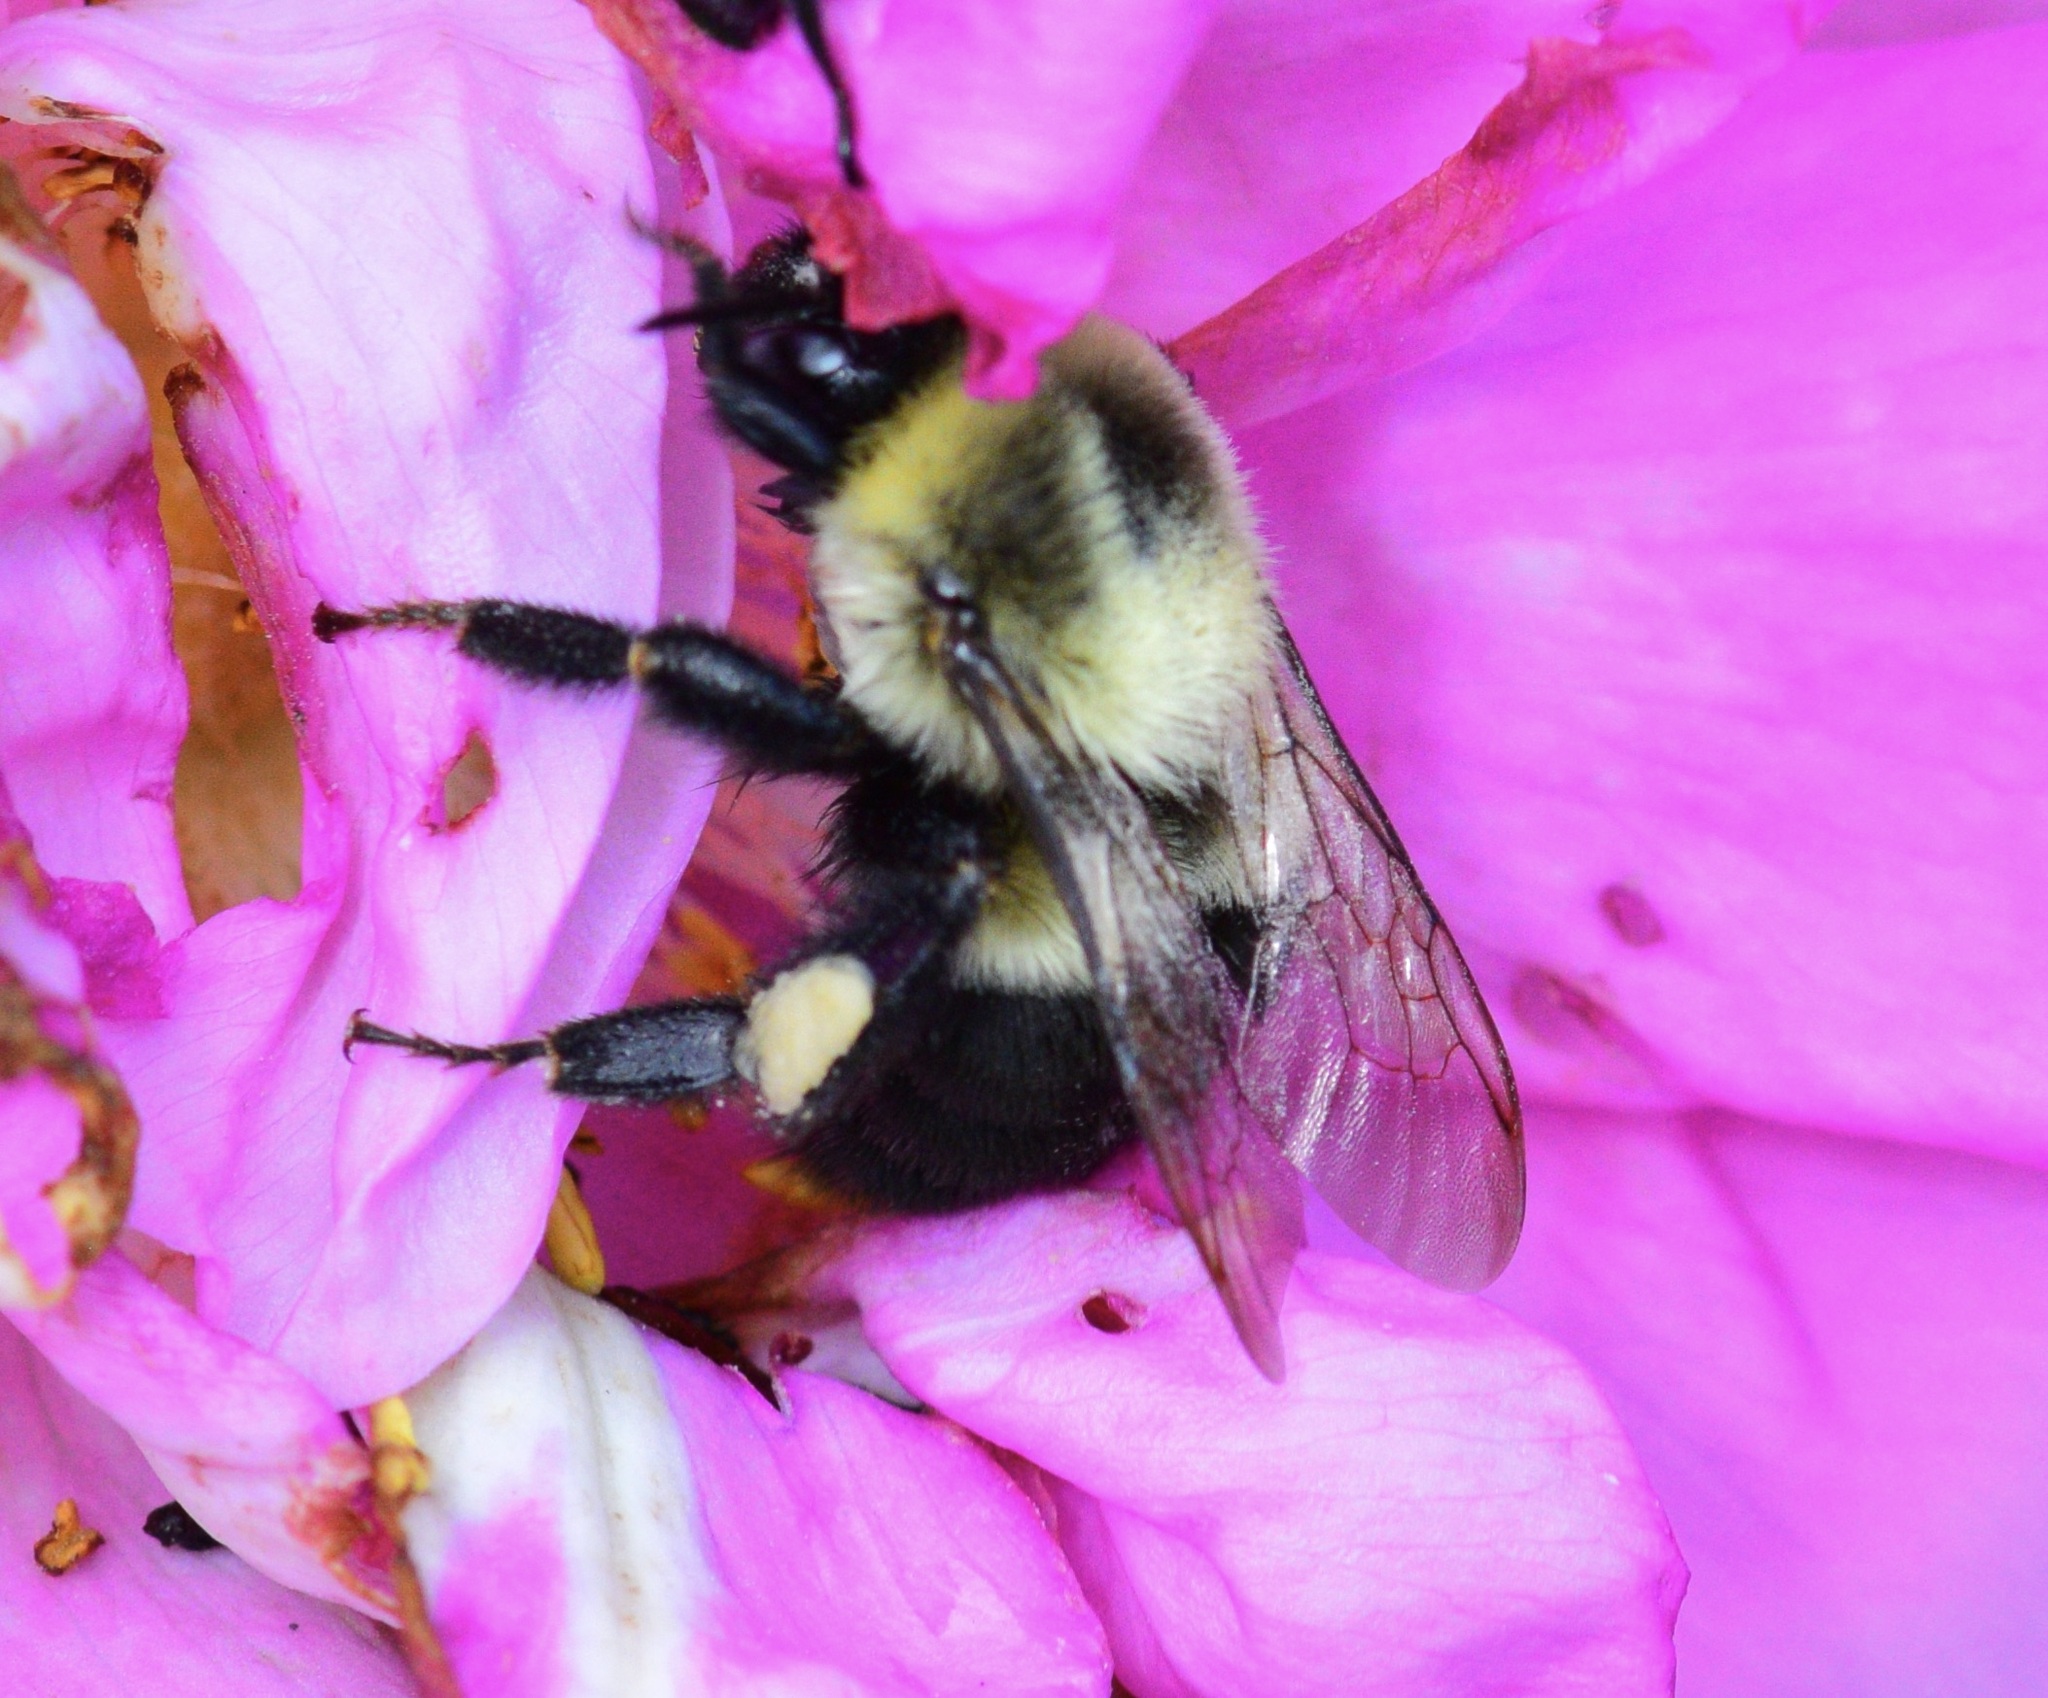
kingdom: Animalia
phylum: Arthropoda
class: Insecta
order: Hymenoptera
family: Apidae
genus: Bombus
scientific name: Bombus impatiens
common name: Common eastern bumble bee
